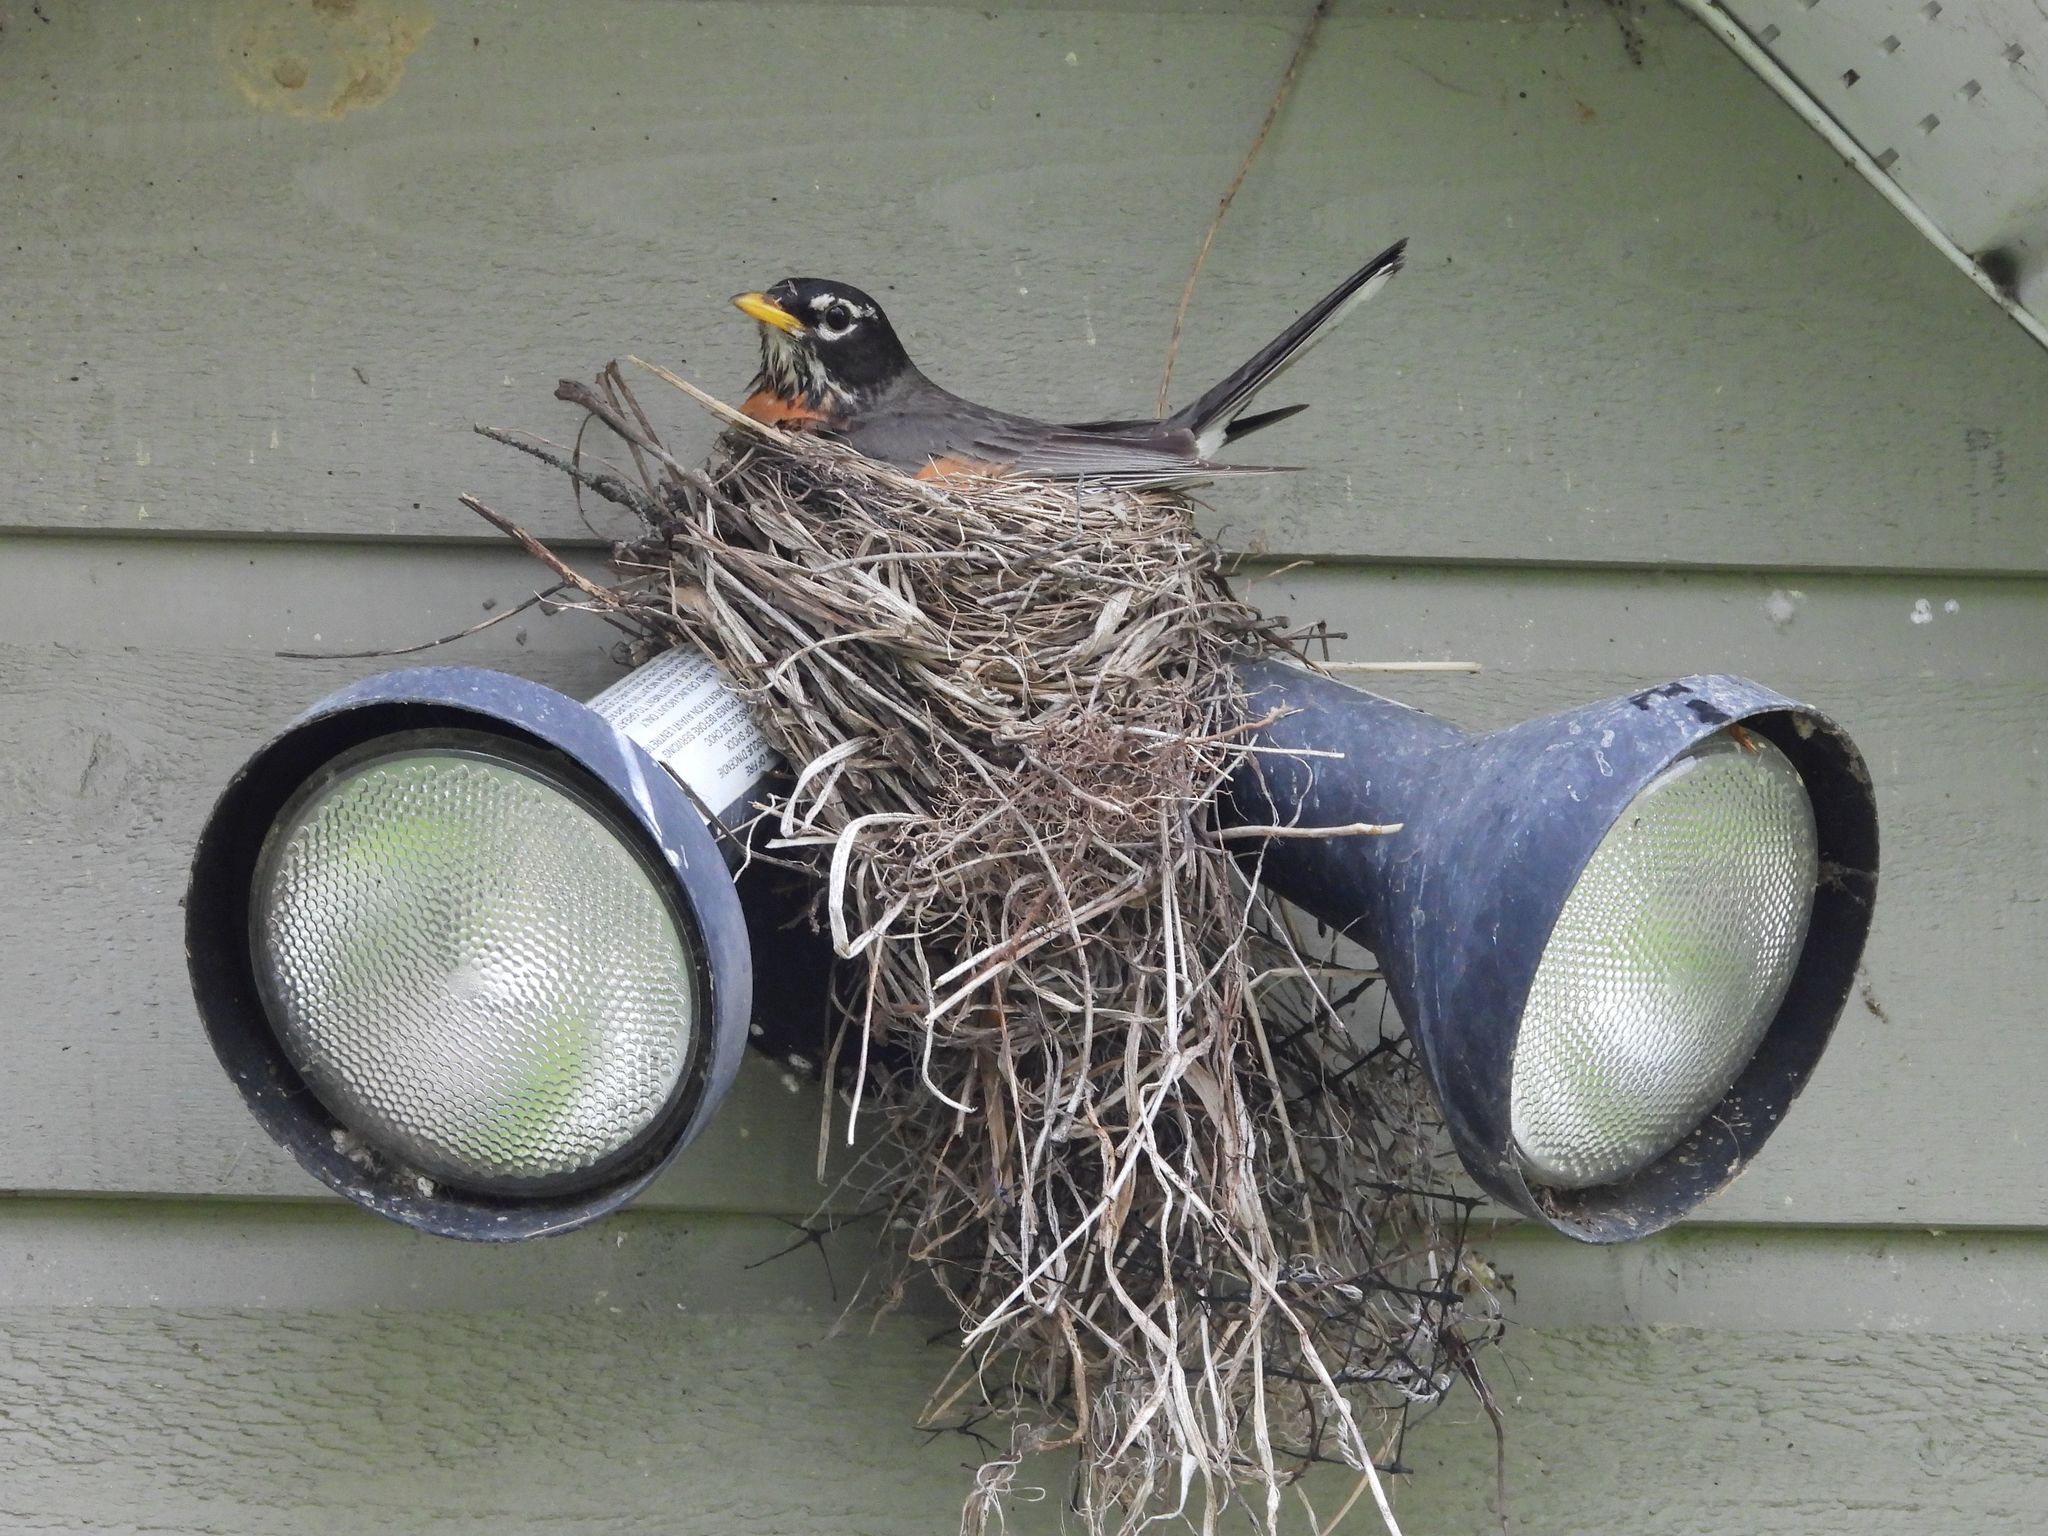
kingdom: Animalia
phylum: Chordata
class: Aves
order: Passeriformes
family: Turdidae
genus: Turdus
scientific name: Turdus migratorius
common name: American robin
